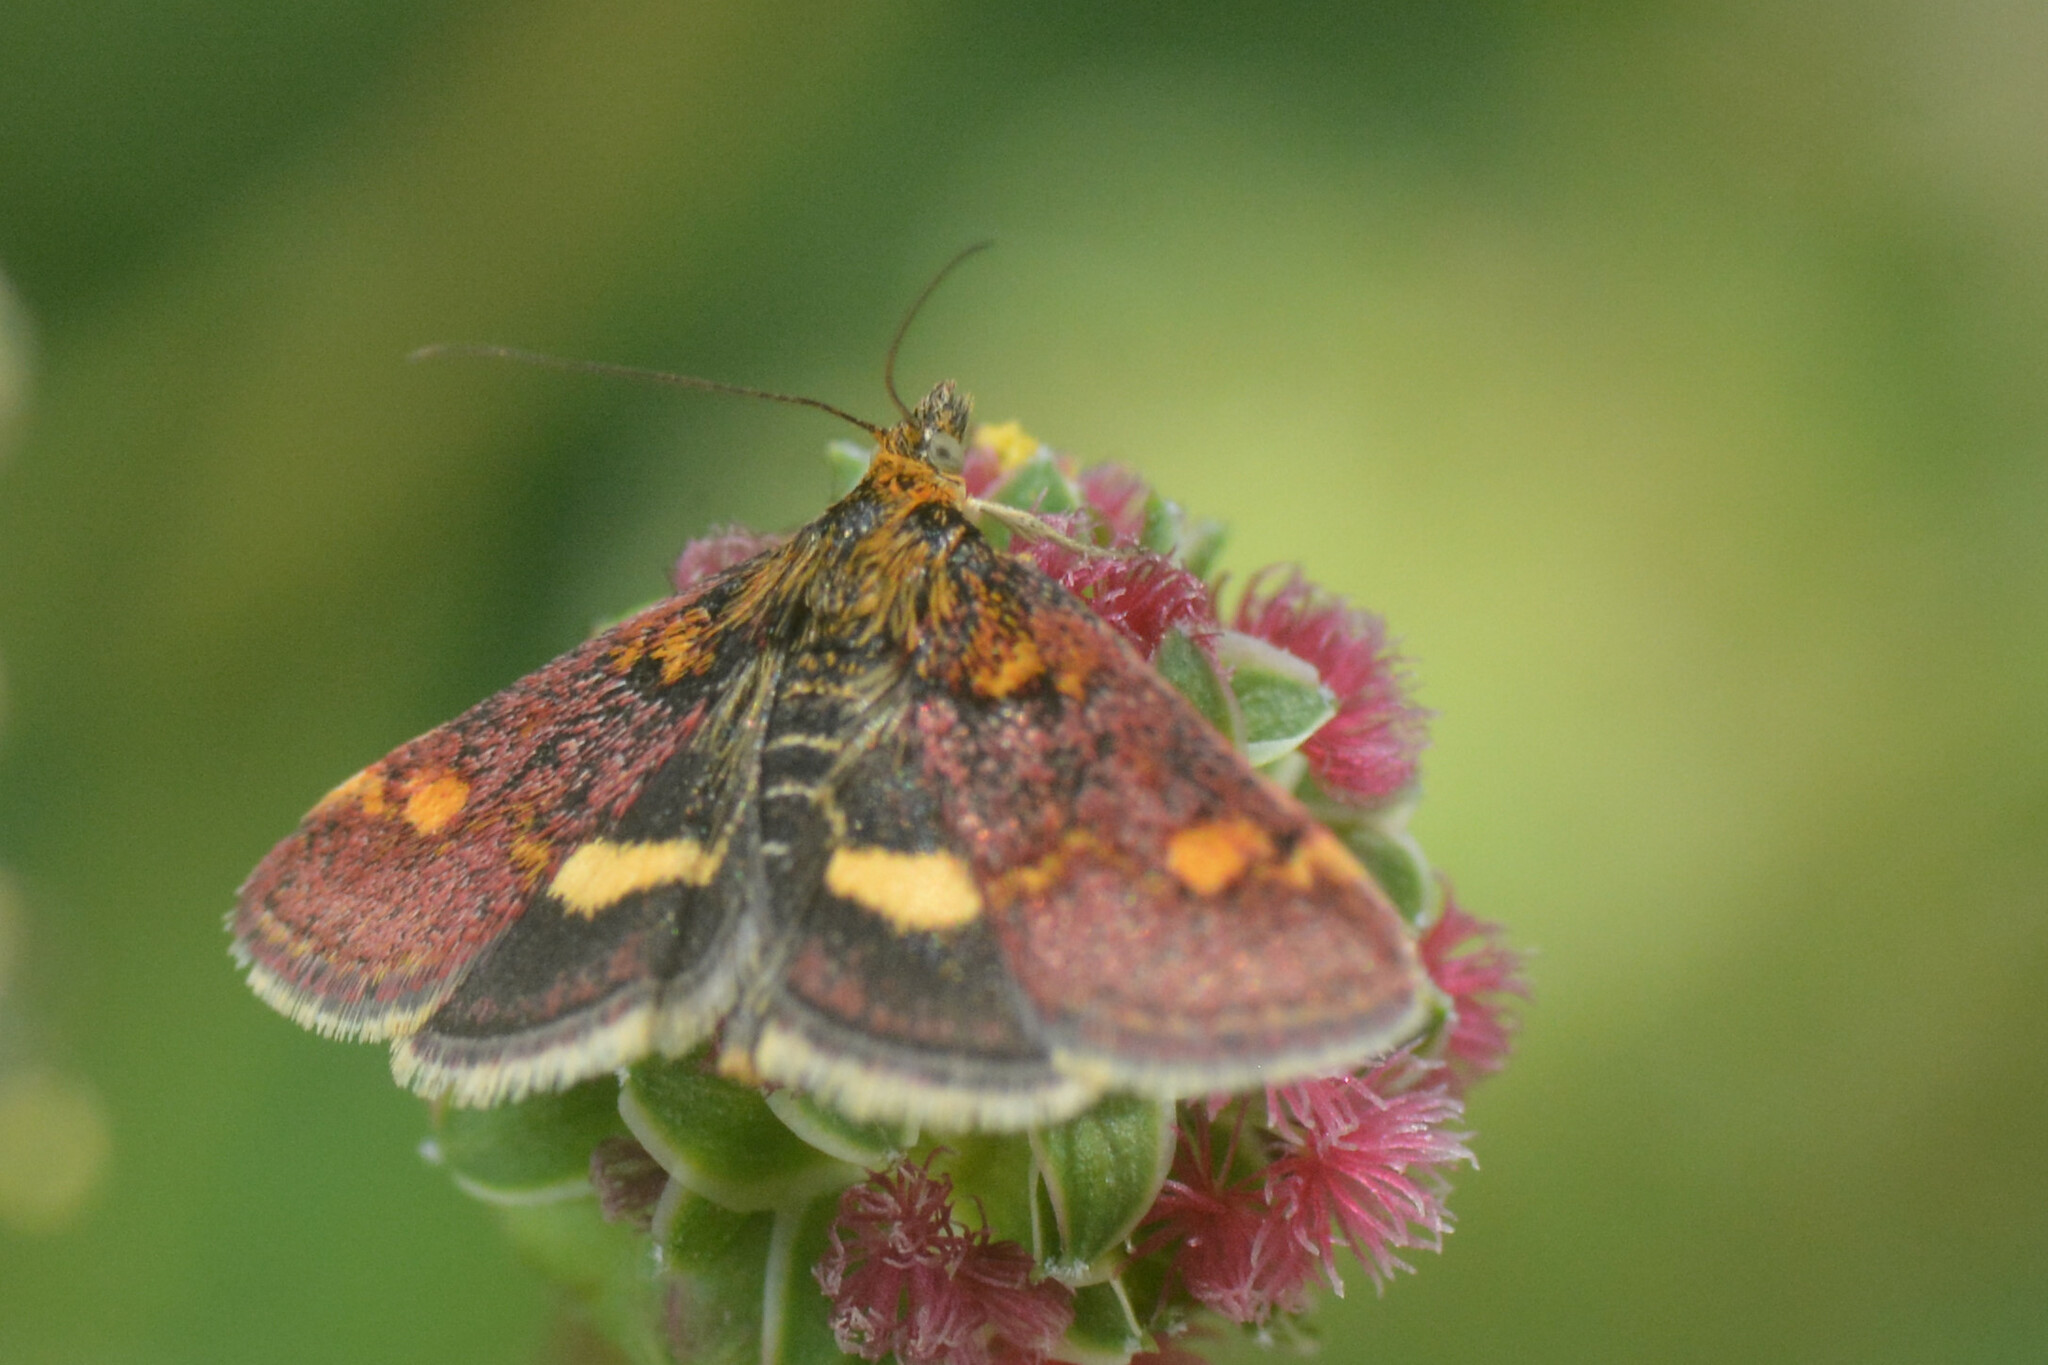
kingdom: Animalia
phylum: Arthropoda
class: Insecta
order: Lepidoptera
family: Crambidae
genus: Pyrausta
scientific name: Pyrausta aurata
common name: Small purple & gold
